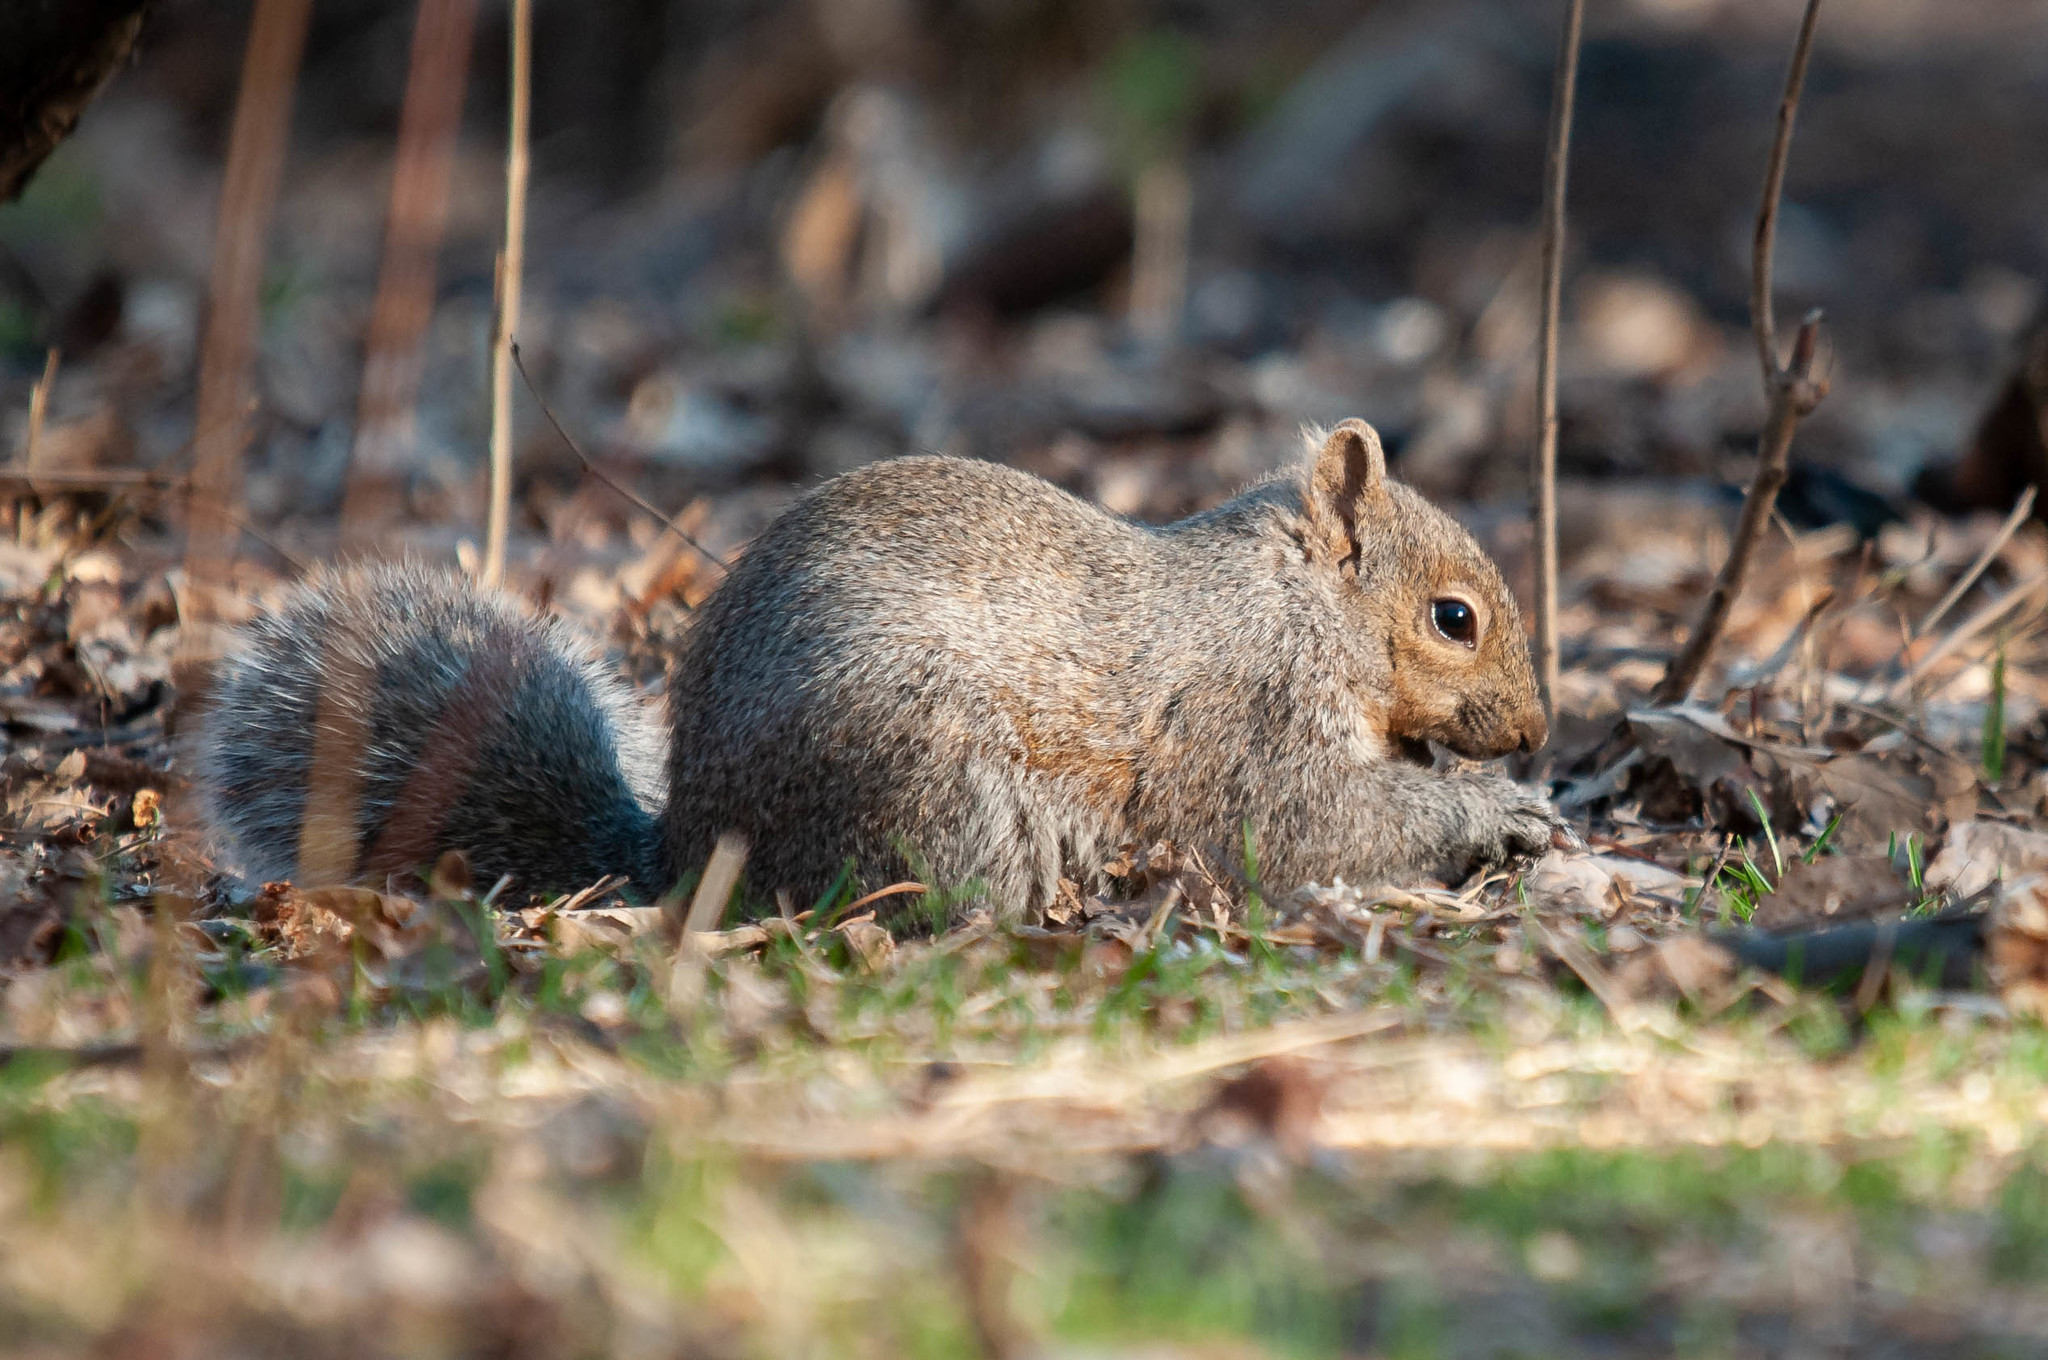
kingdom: Animalia
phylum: Chordata
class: Mammalia
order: Rodentia
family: Sciuridae
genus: Sciurus
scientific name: Sciurus carolinensis
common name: Eastern gray squirrel
